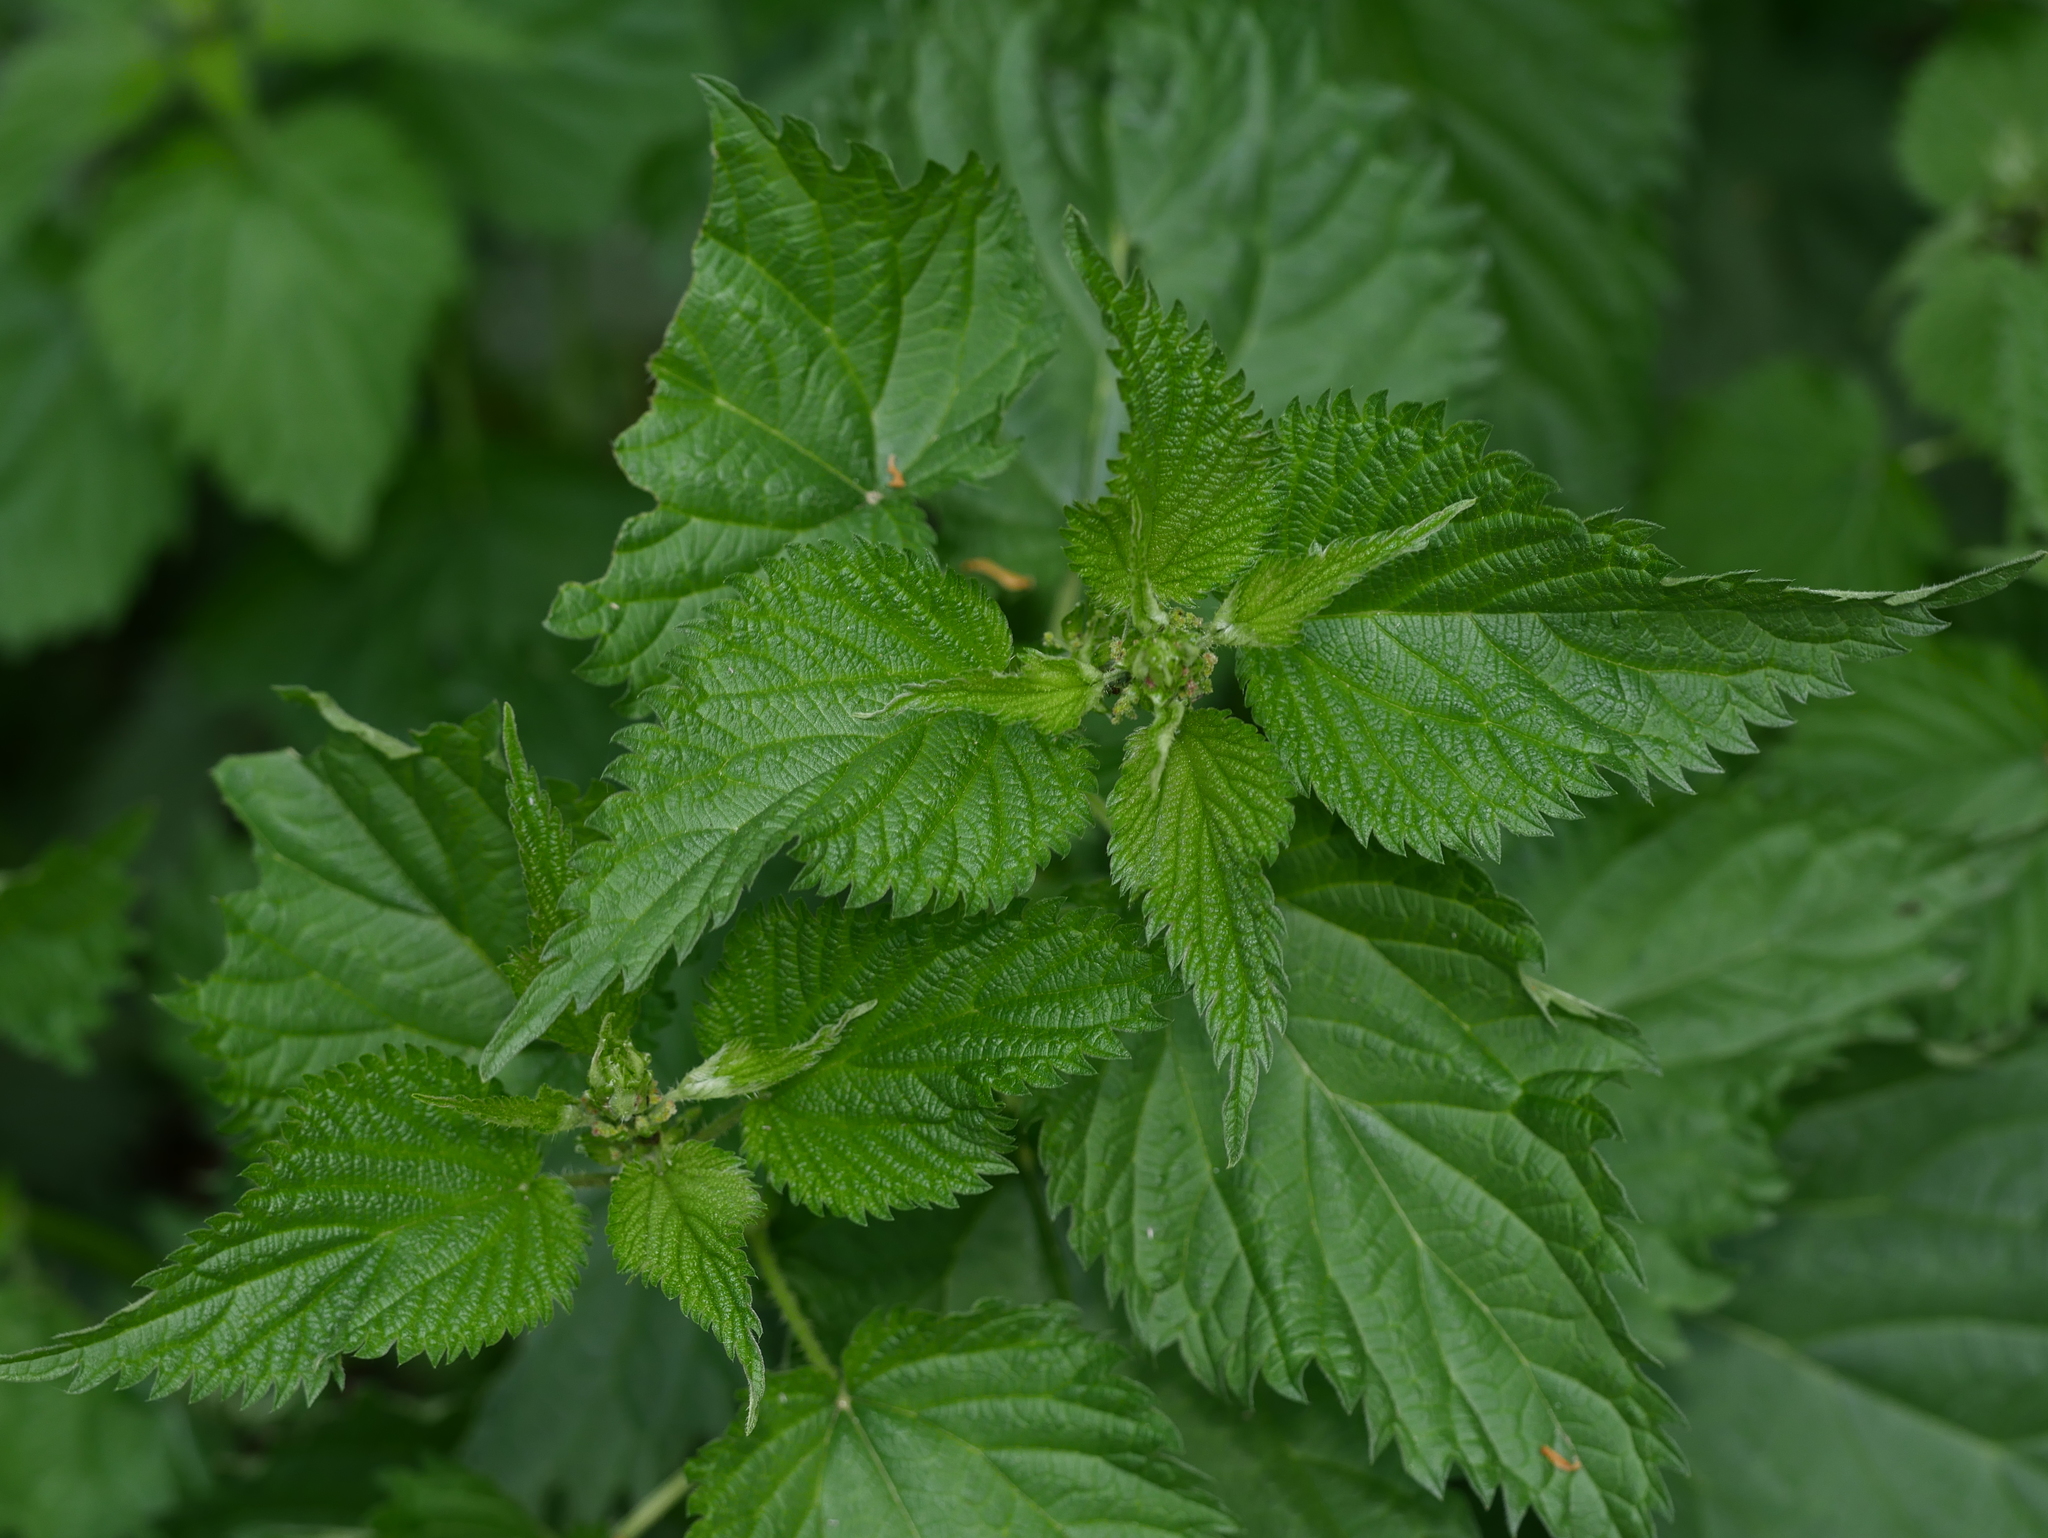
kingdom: Plantae
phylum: Tracheophyta
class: Magnoliopsida
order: Rosales
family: Urticaceae
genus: Urtica
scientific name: Urtica dioica
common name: Common nettle
